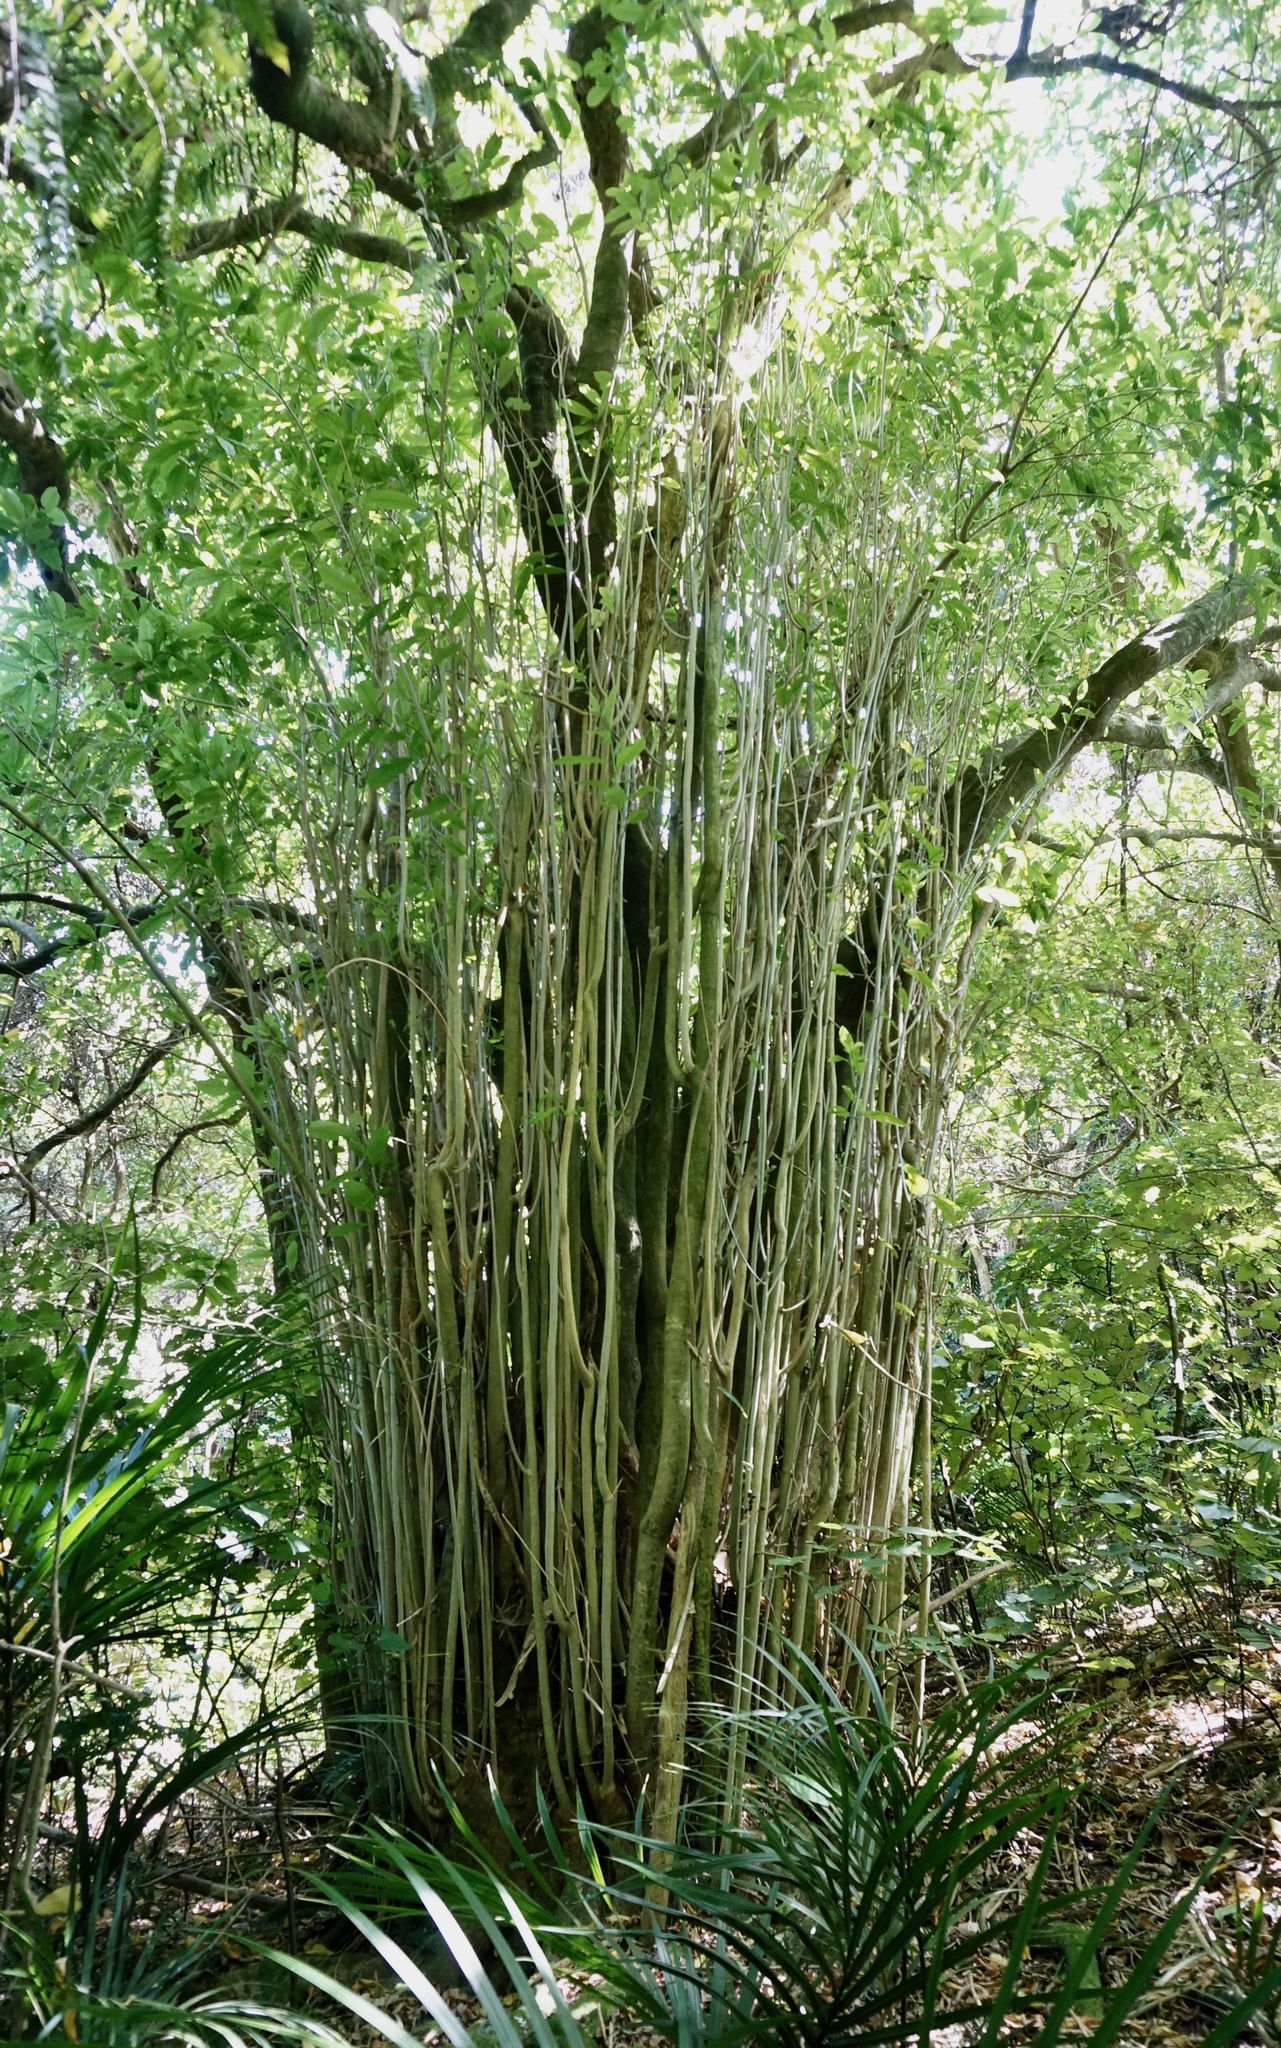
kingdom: Plantae
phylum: Tracheophyta
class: Magnoliopsida
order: Malpighiales
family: Violaceae
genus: Melicytus
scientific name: Melicytus ramiflorus
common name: Mahoe
